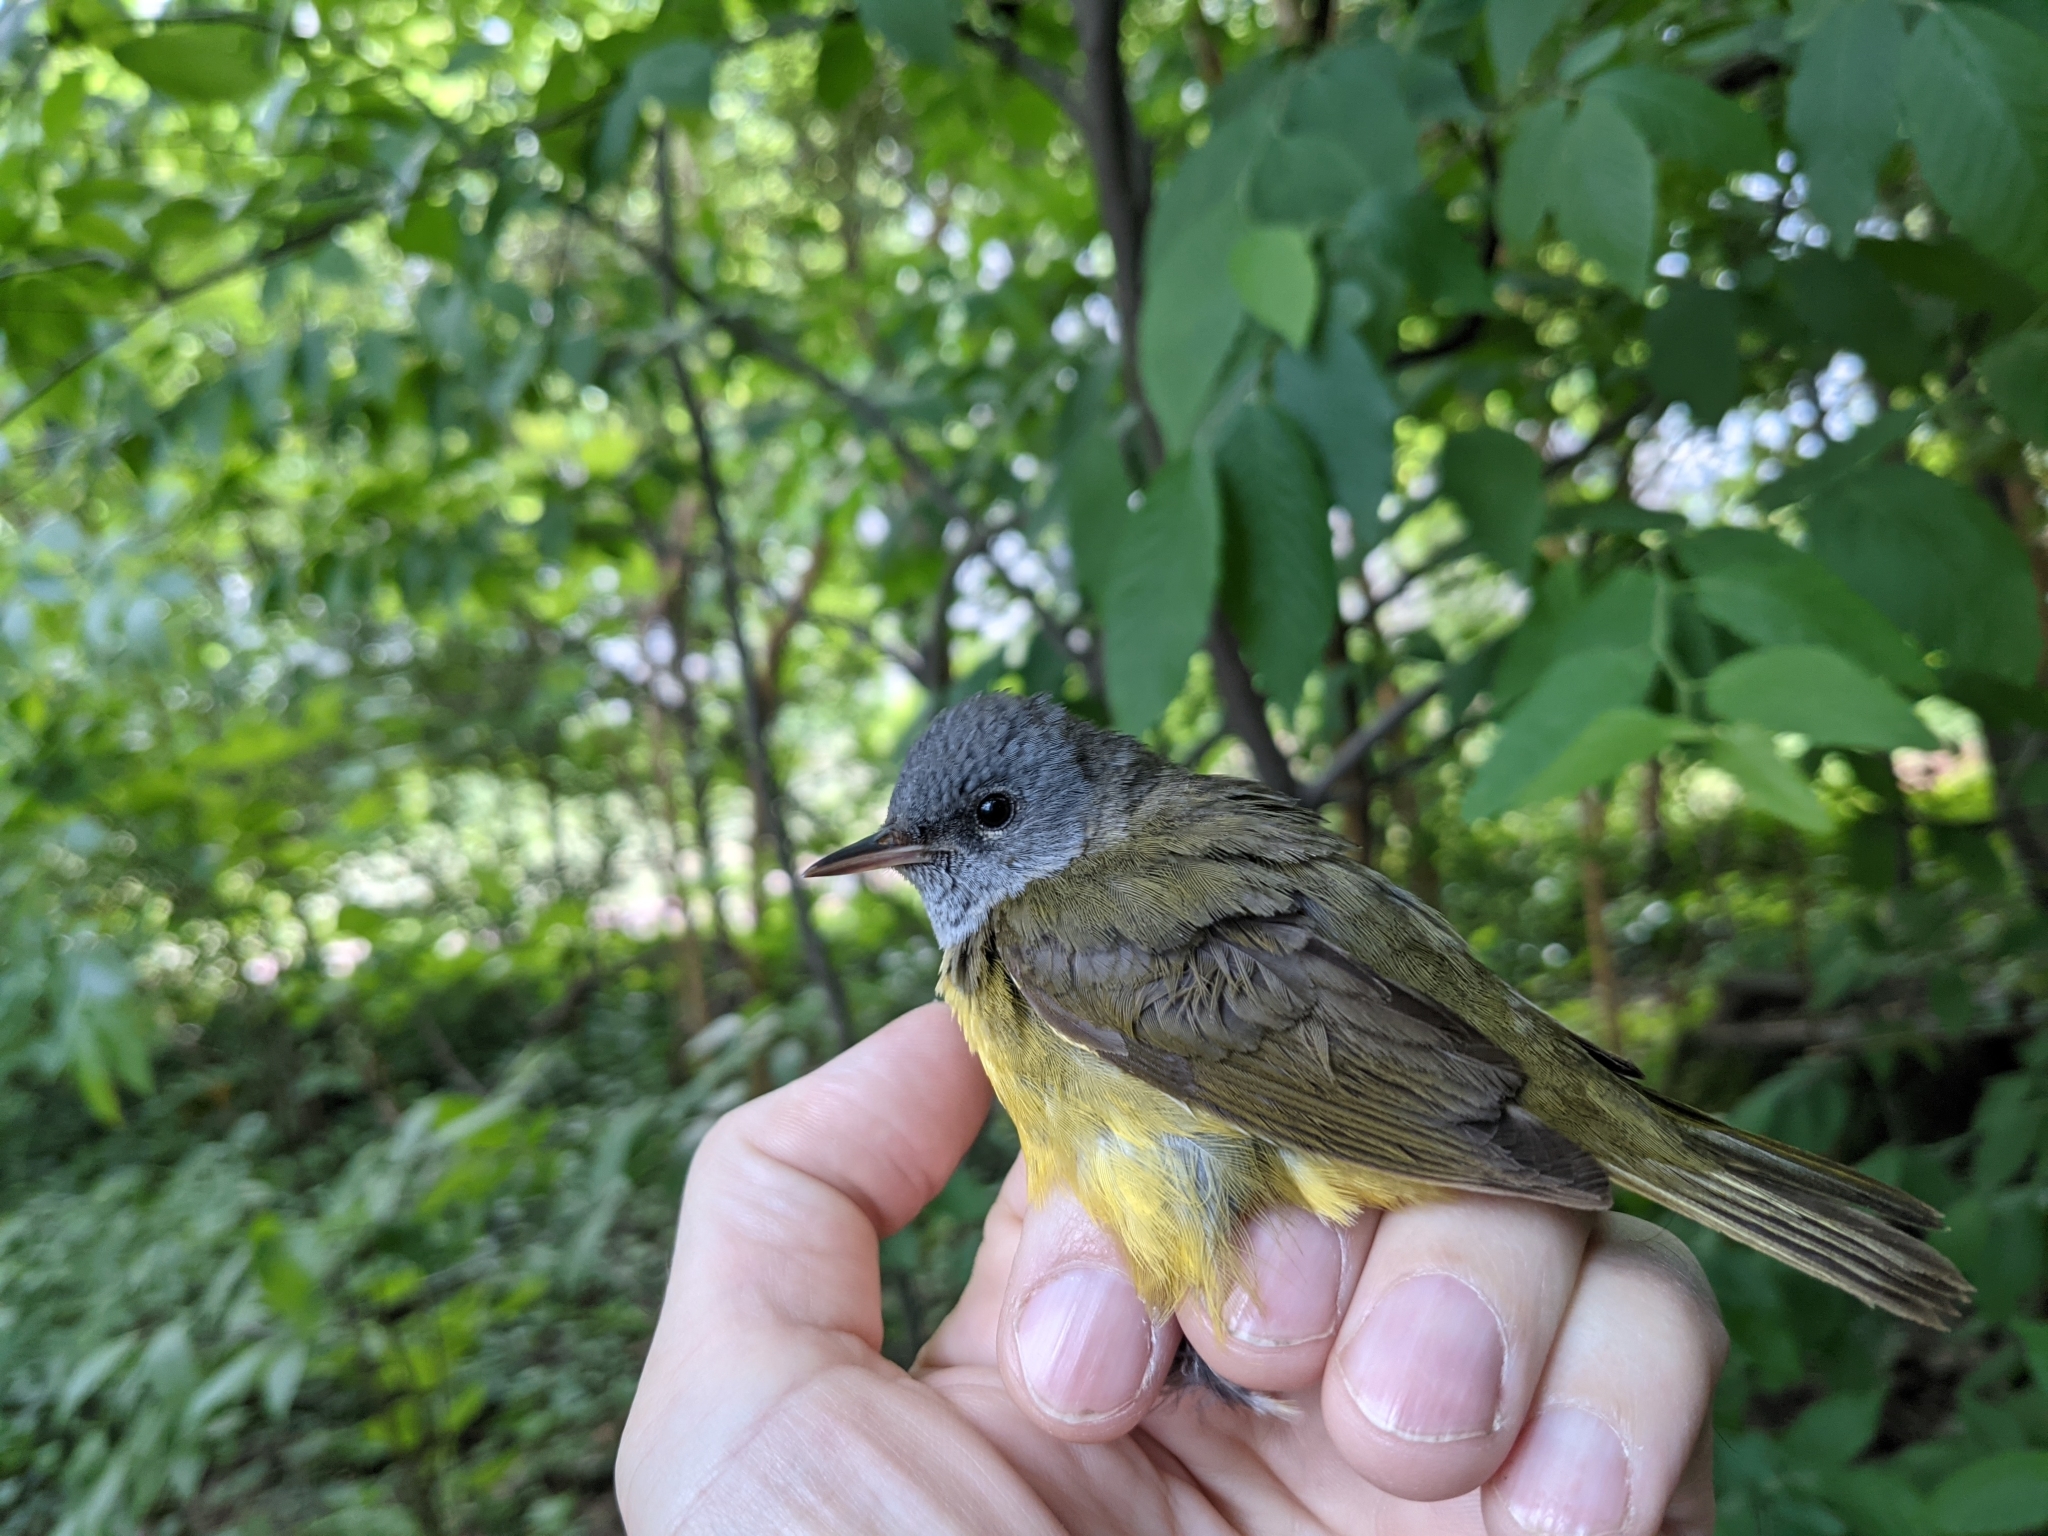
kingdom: Animalia
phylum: Chordata
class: Aves
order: Passeriformes
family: Parulidae
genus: Geothlypis
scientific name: Geothlypis philadelphia
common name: Mourning warbler
